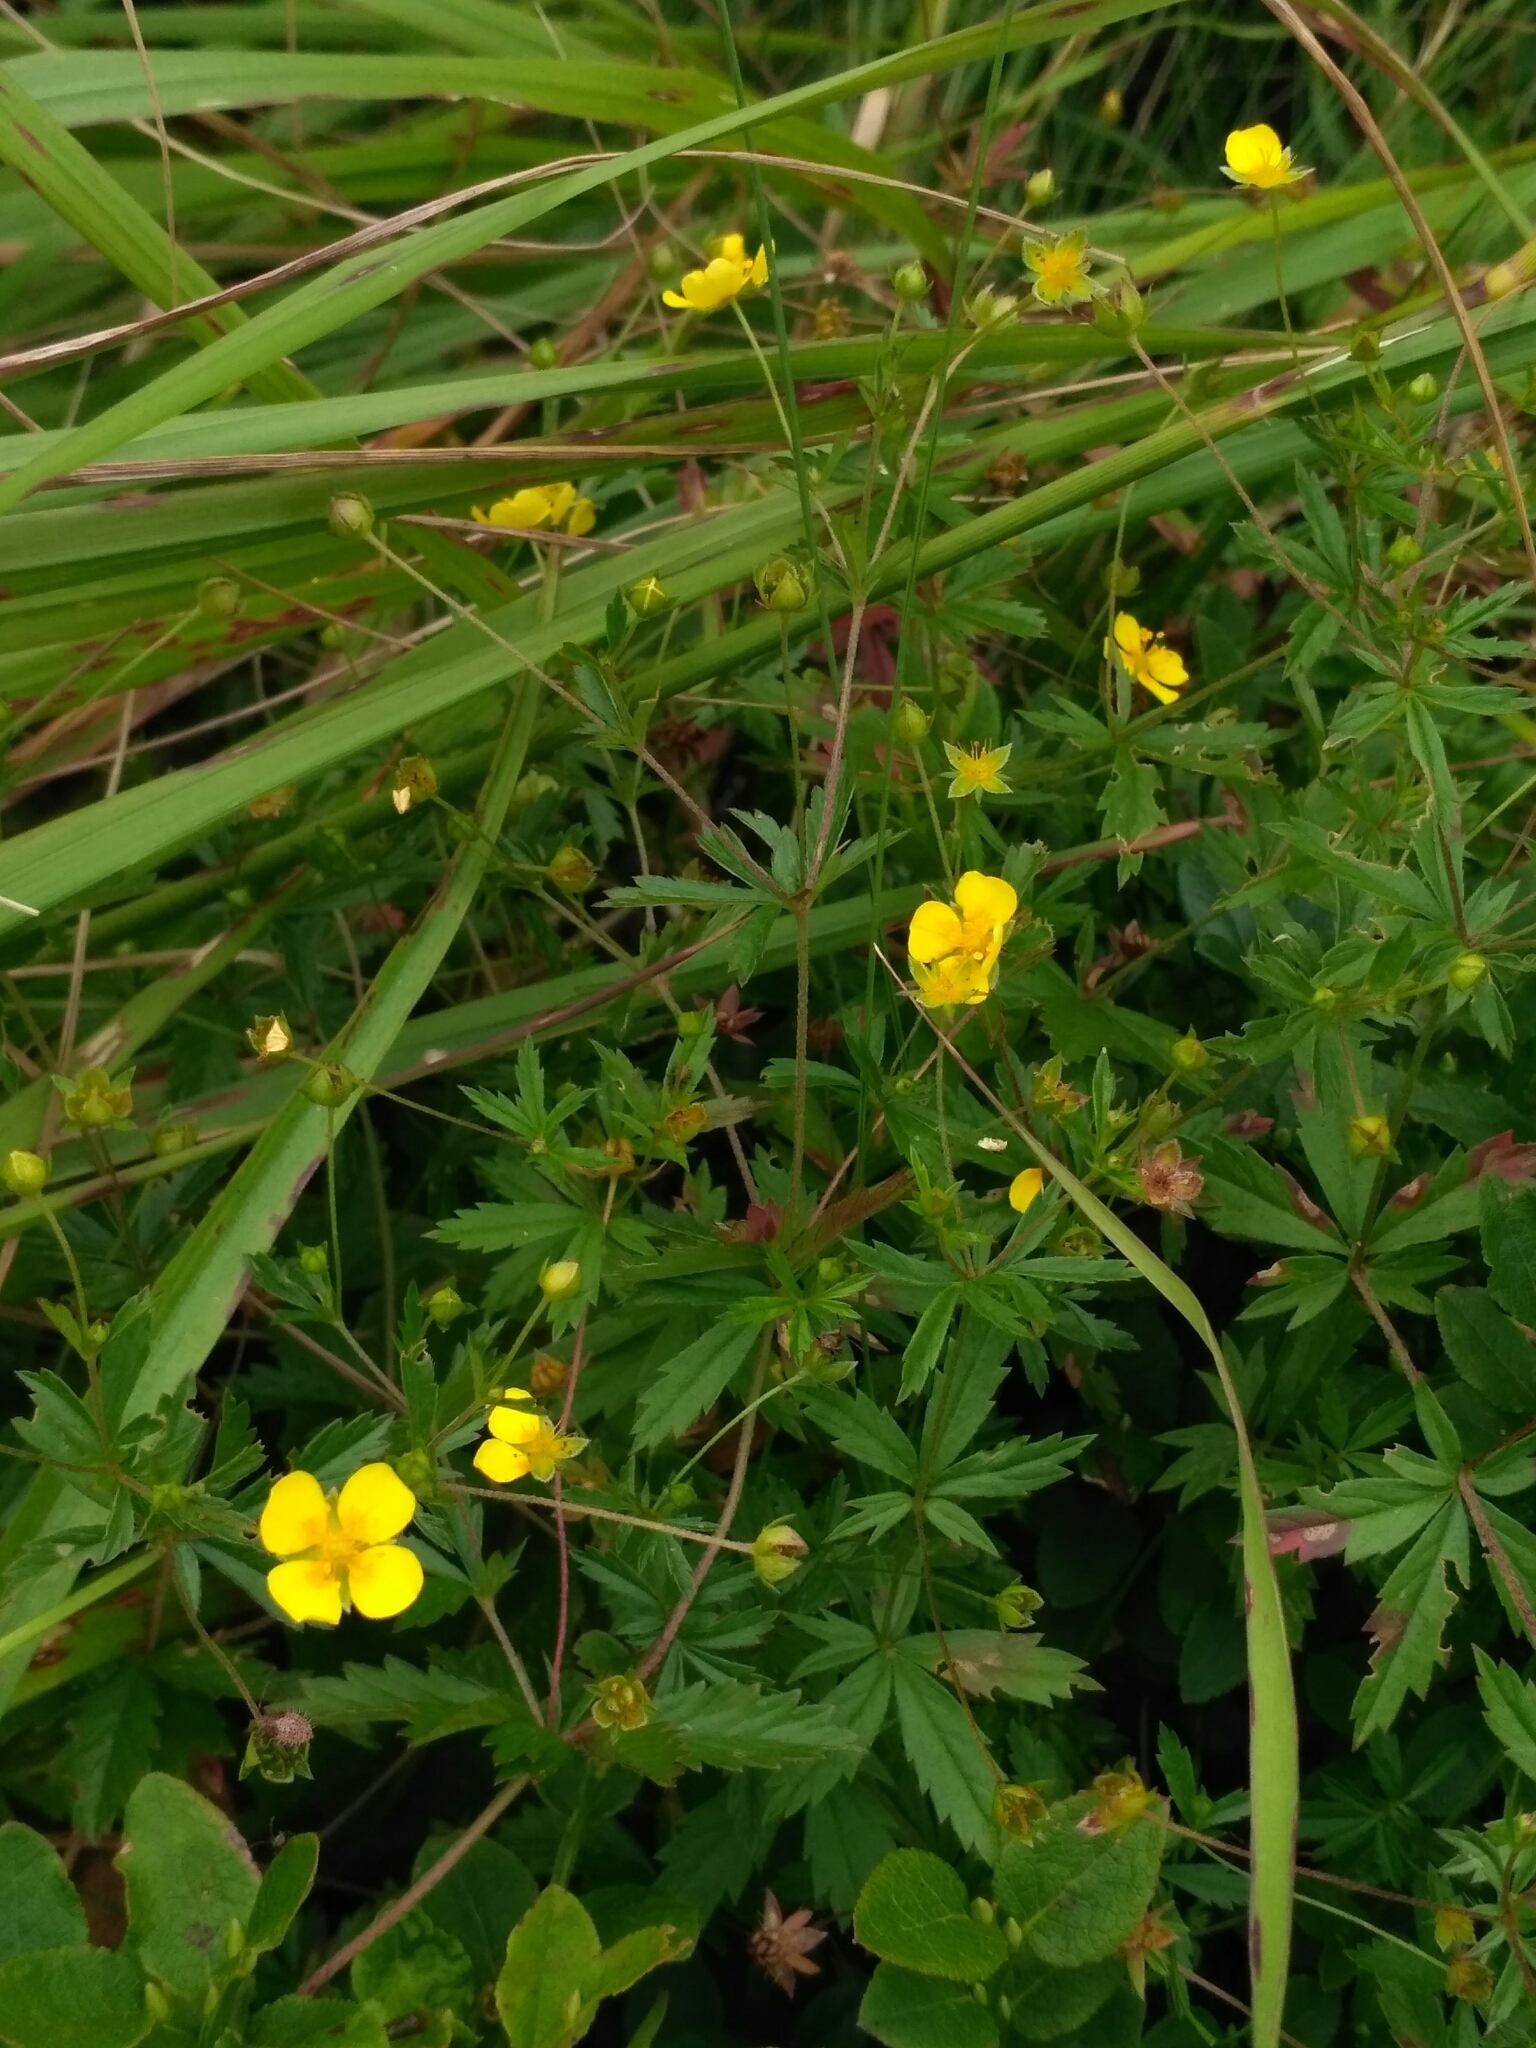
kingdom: Plantae
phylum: Tracheophyta
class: Magnoliopsida
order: Rosales
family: Rosaceae
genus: Potentilla
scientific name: Potentilla erecta
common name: Tormentil
